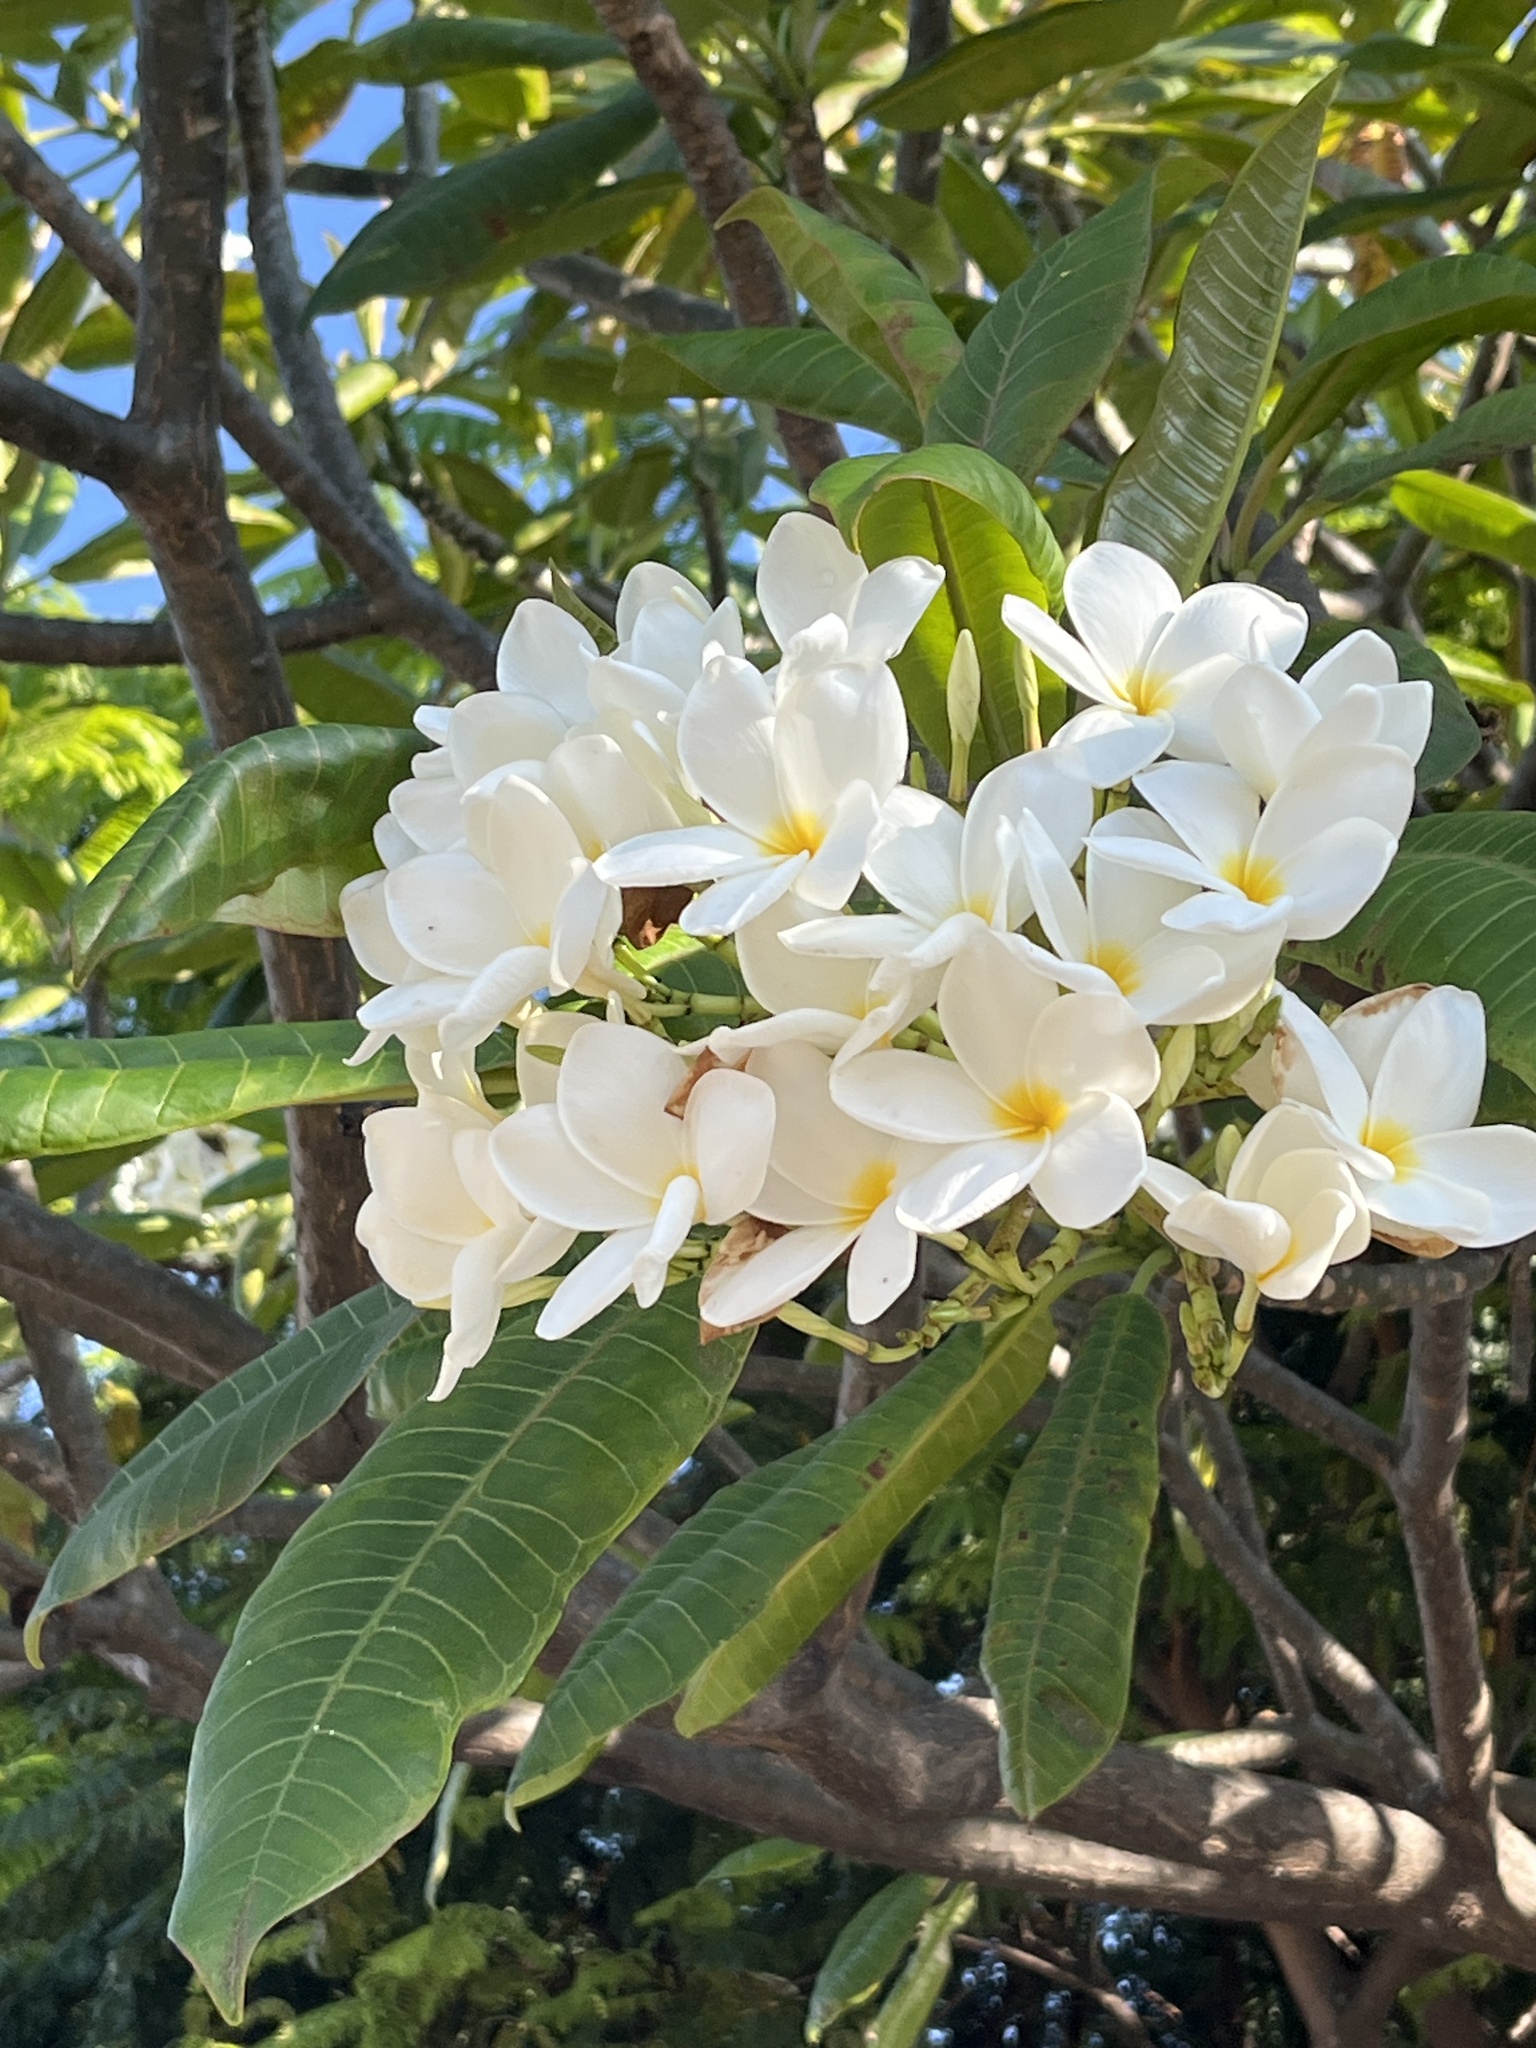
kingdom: Plantae
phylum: Tracheophyta
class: Magnoliopsida
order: Gentianales
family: Apocynaceae
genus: Plumeria
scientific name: Plumeria rubra
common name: Pagoda-tree
